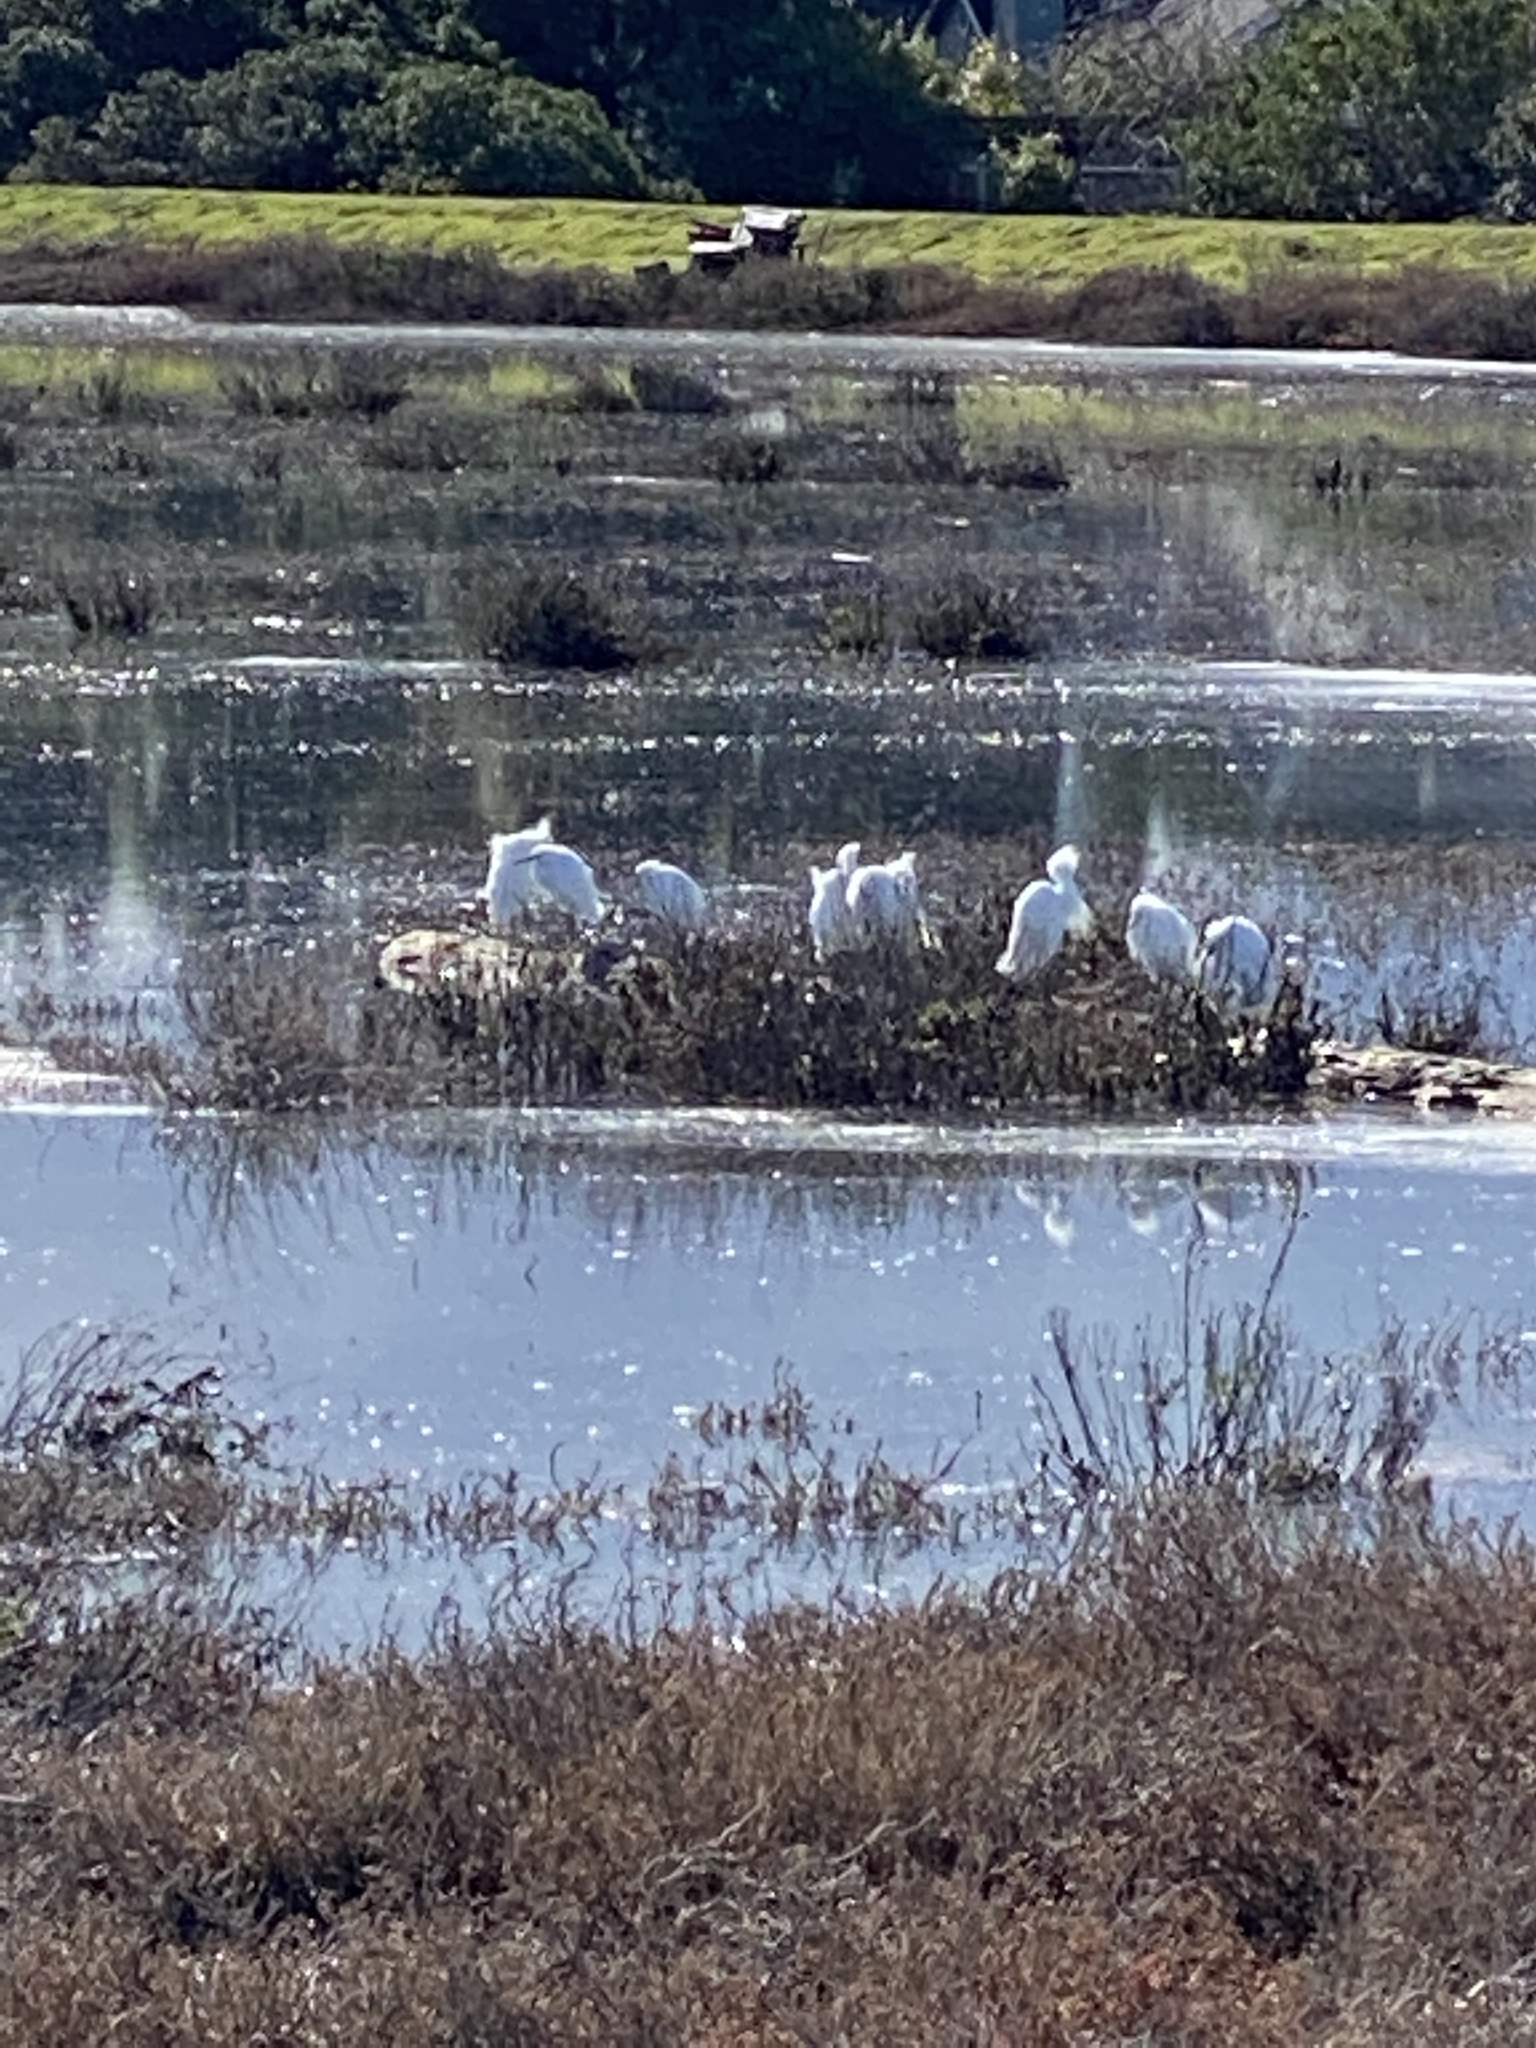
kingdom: Animalia
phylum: Chordata
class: Aves
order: Pelecaniformes
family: Ardeidae
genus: Egretta
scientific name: Egretta thula
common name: Snowy egret
